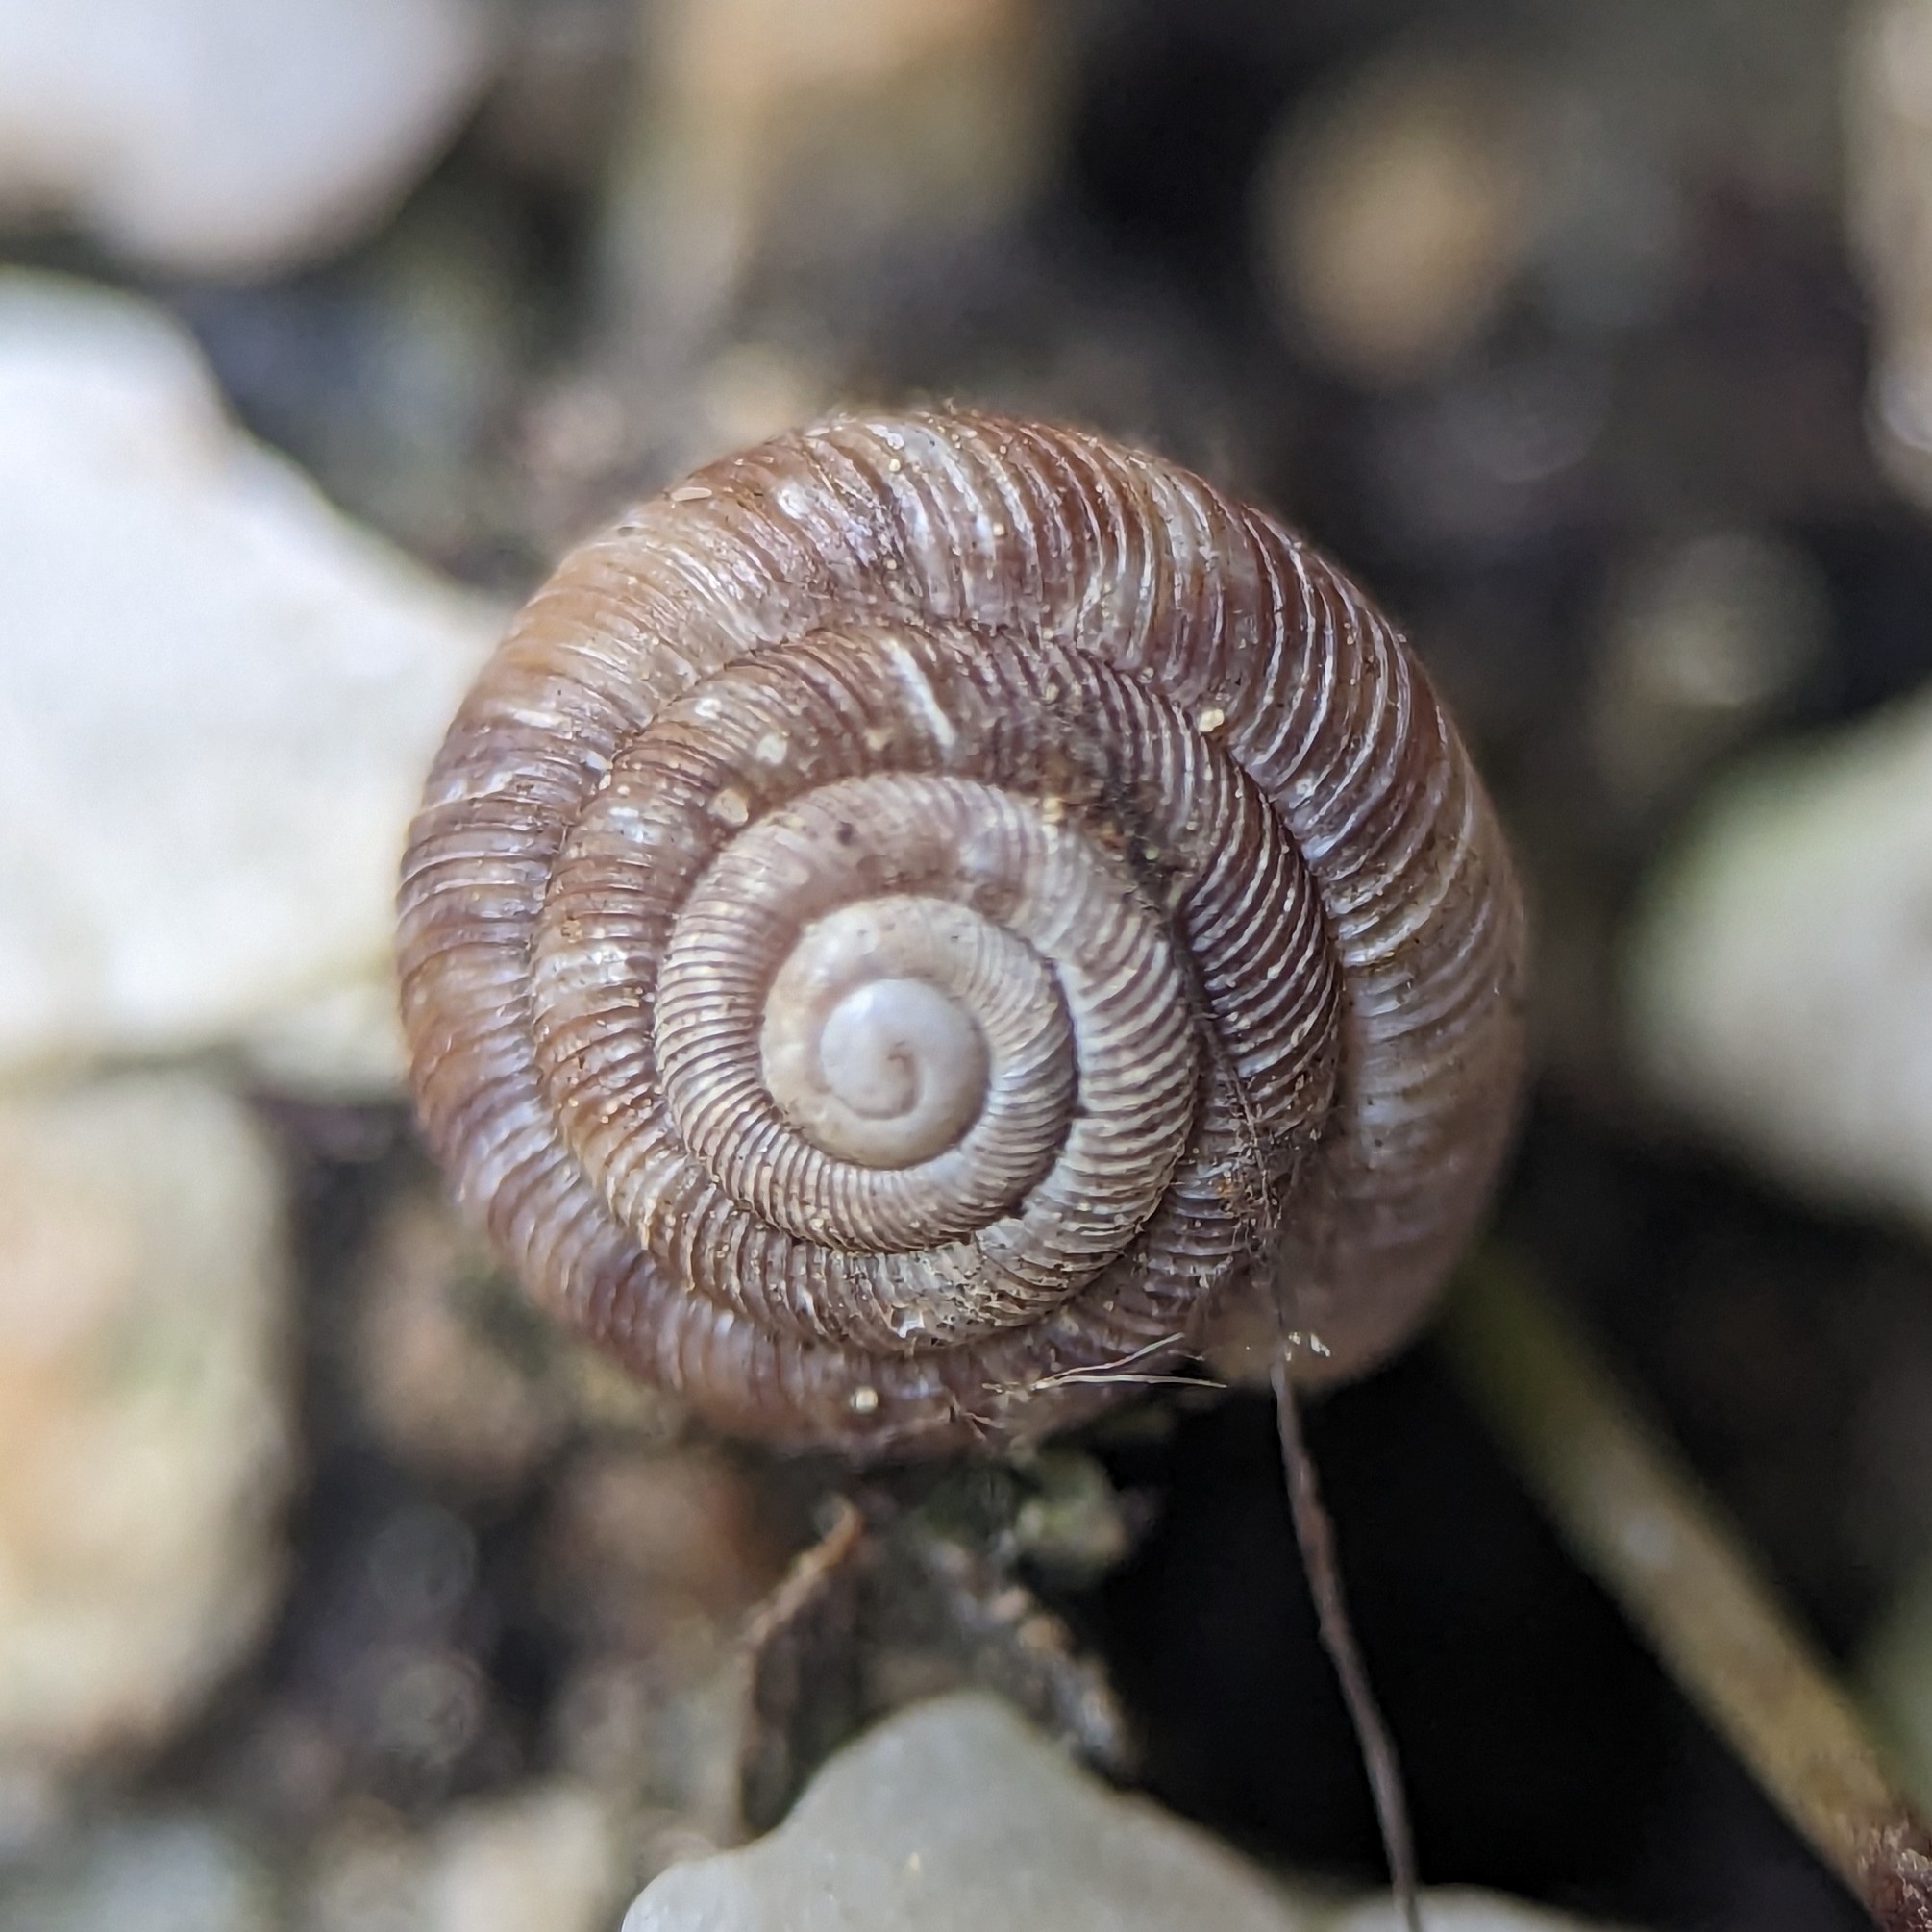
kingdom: Animalia
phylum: Mollusca
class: Gastropoda
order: Stylommatophora
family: Discidae
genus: Discus
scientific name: Discus rotundatus
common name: Rounded snail
